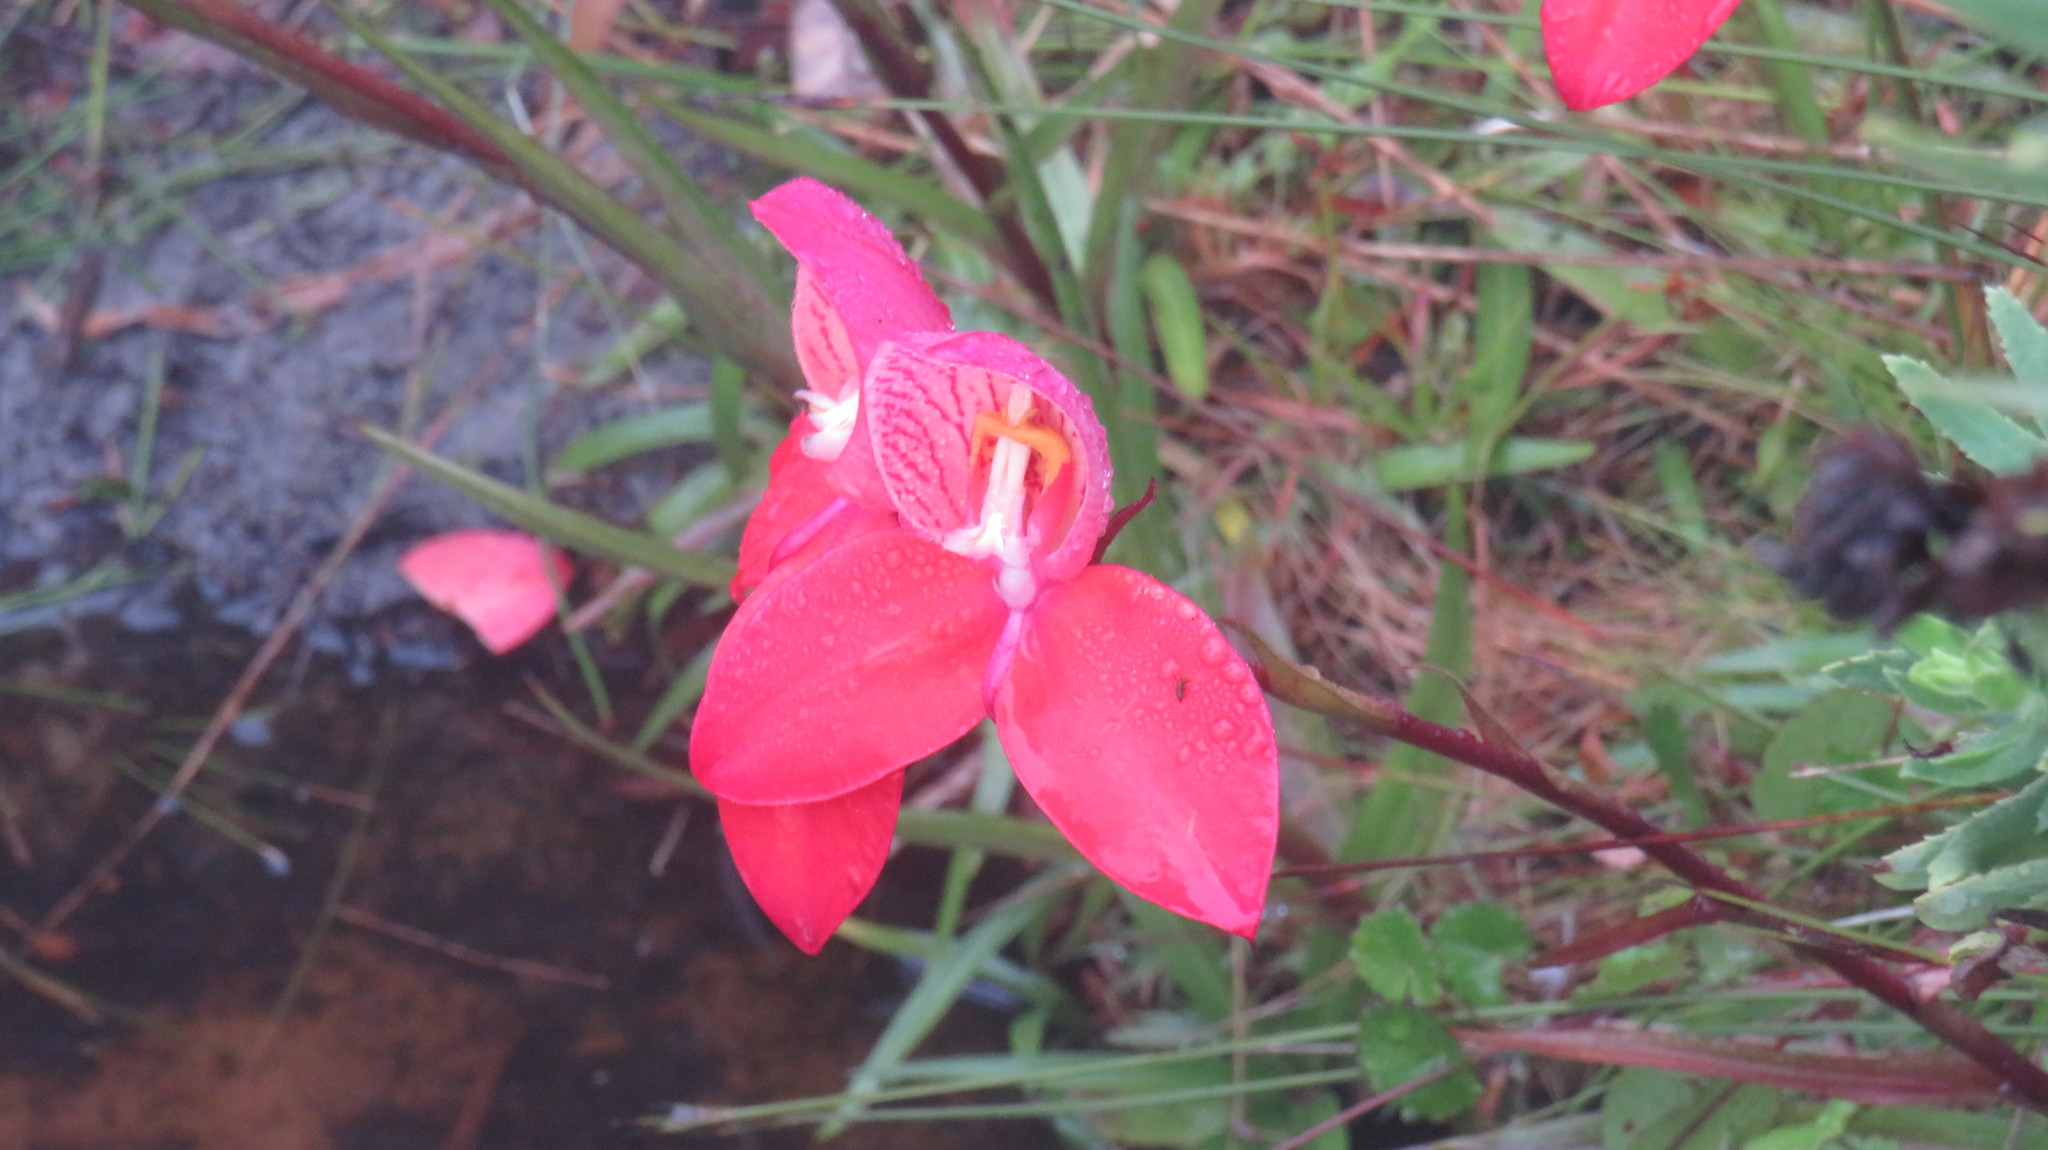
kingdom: Plantae
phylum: Tracheophyta
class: Liliopsida
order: Asparagales
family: Orchidaceae
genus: Disa
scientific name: Disa uniflora
